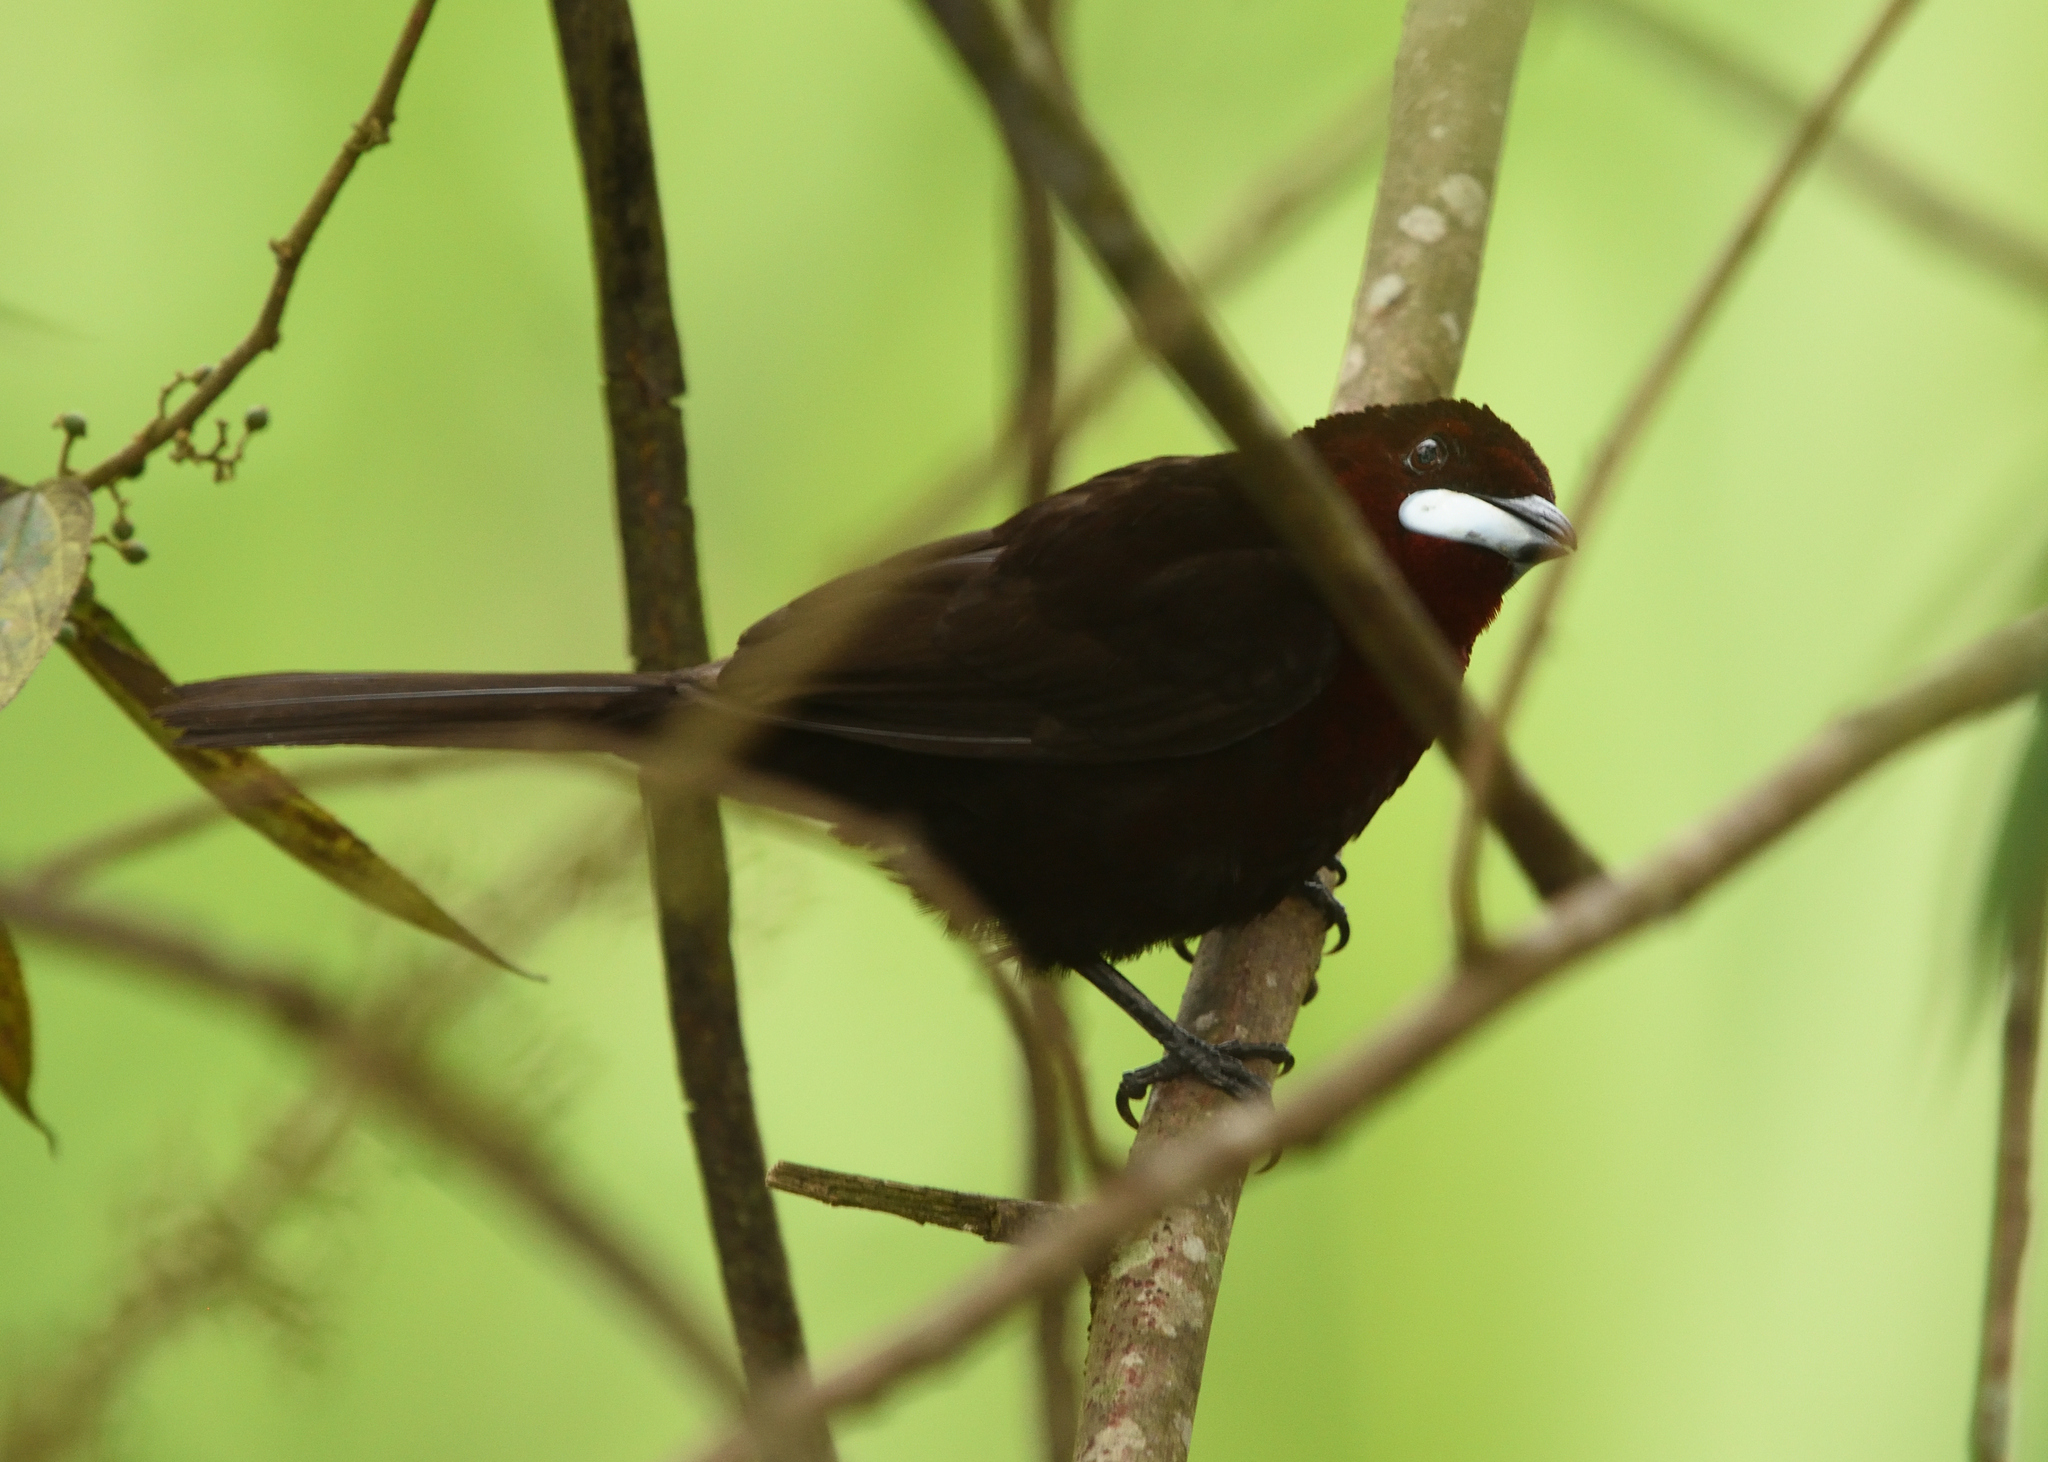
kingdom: Animalia
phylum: Chordata
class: Aves
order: Passeriformes
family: Thraupidae
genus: Ramphocelus
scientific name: Ramphocelus carbo
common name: Silver-beaked tanager
